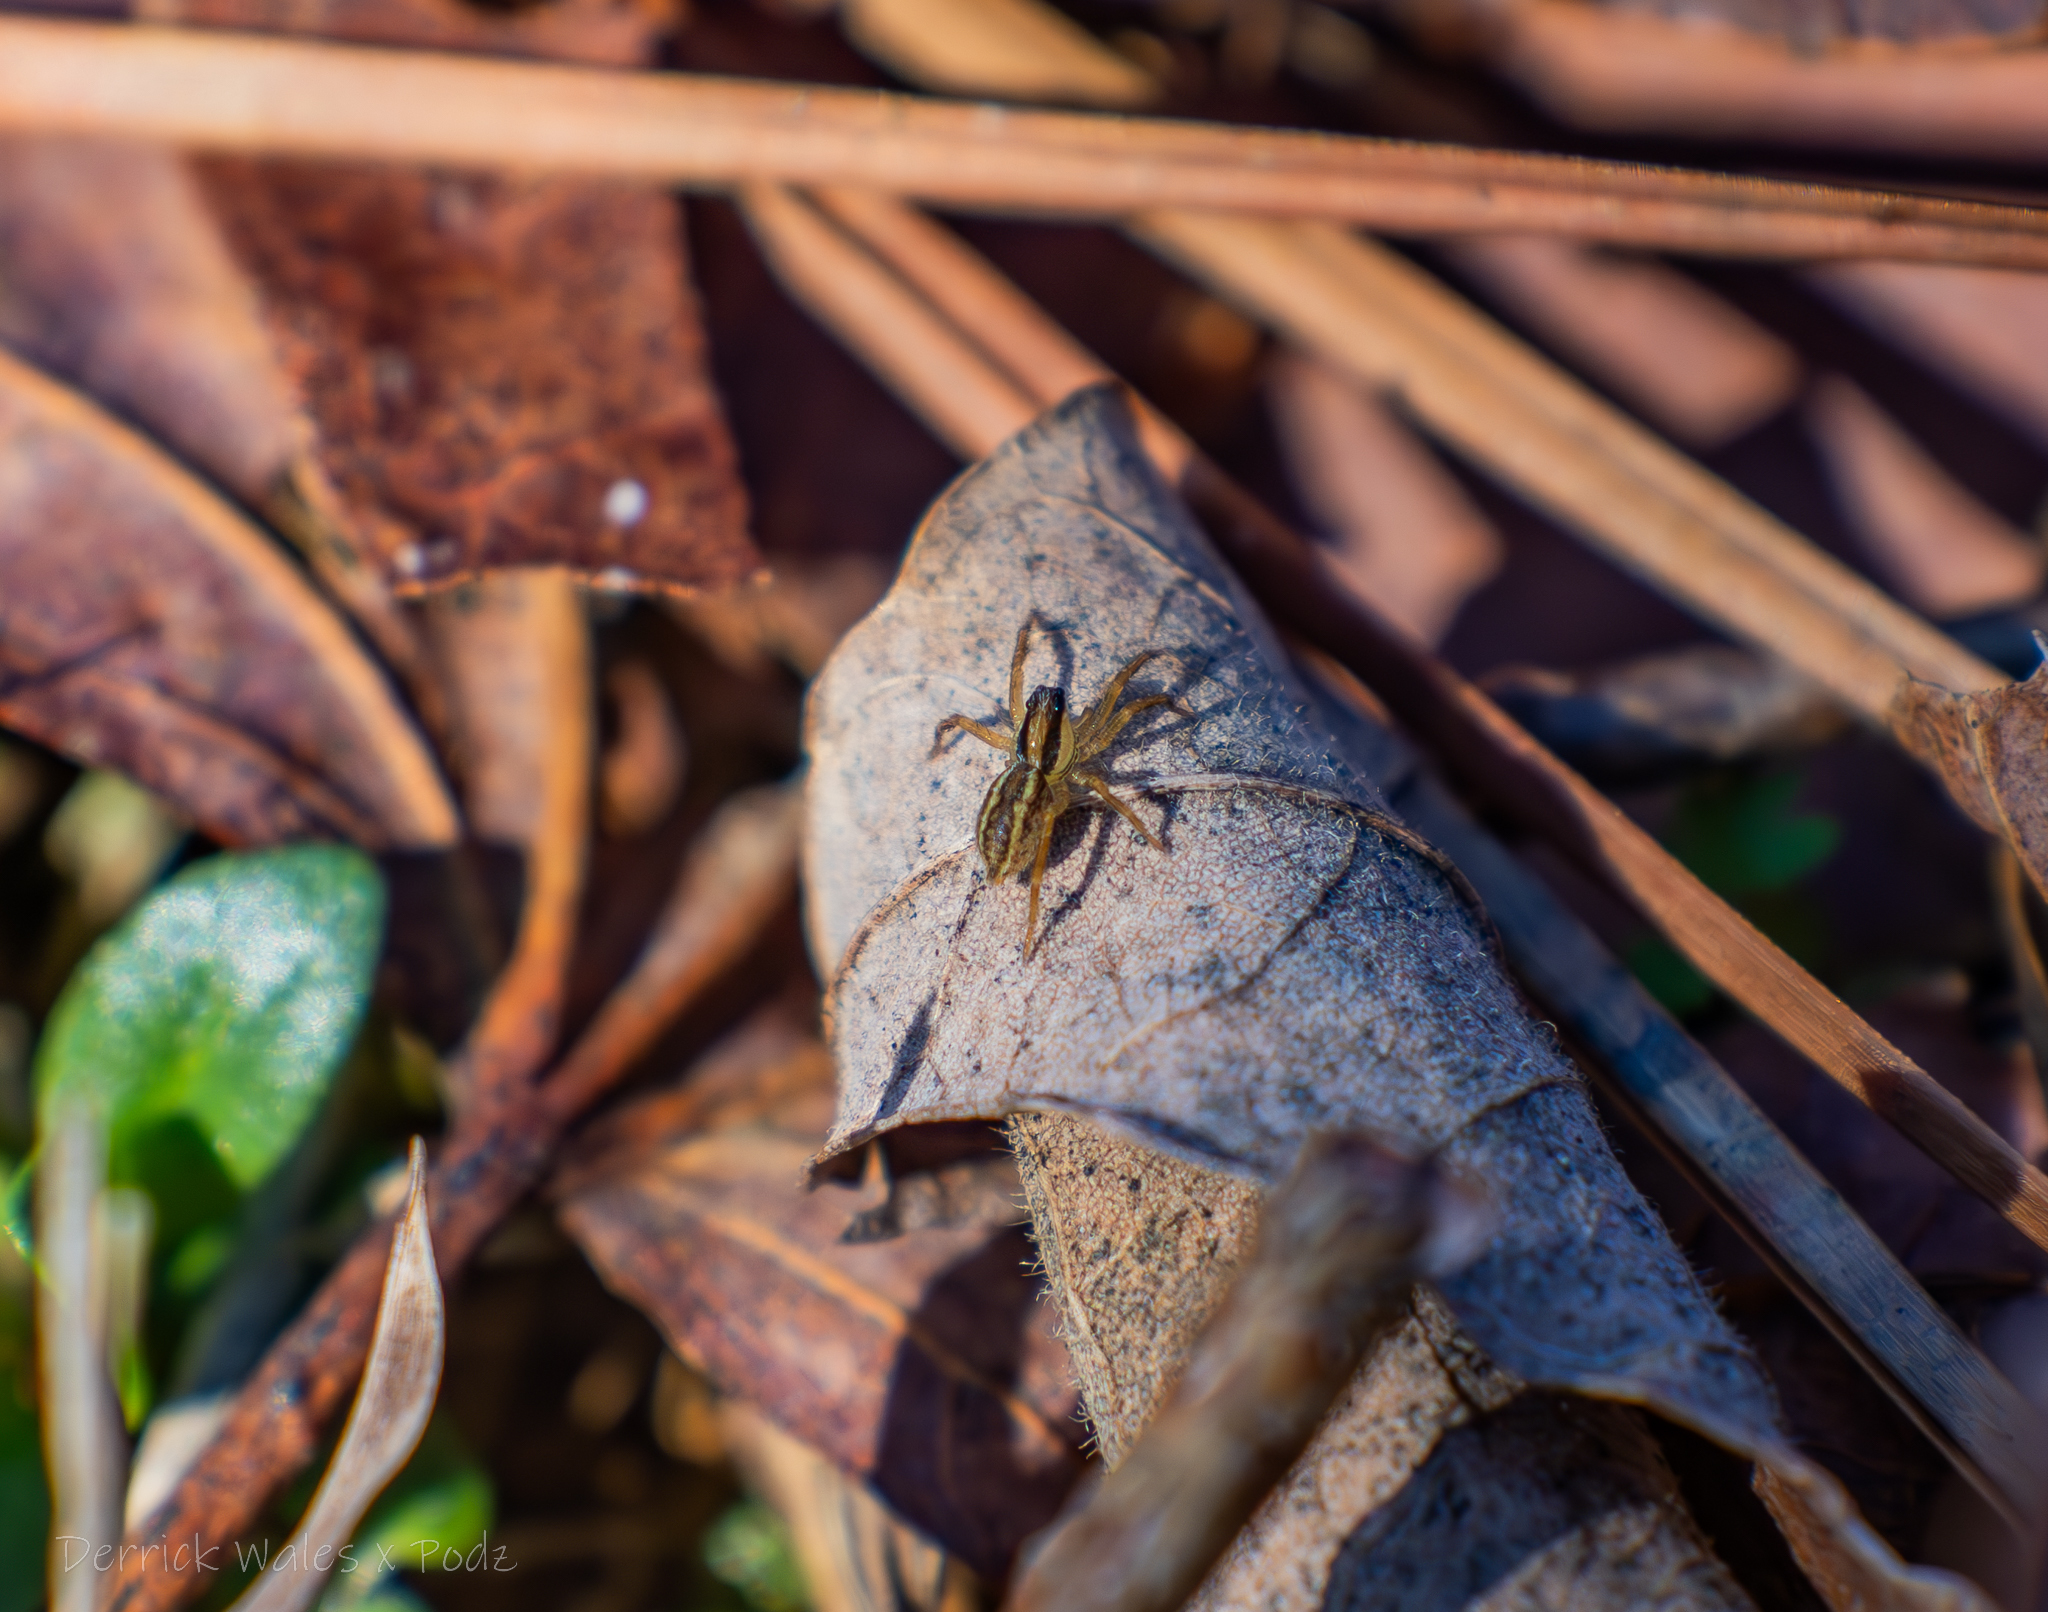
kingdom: Animalia
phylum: Arthropoda
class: Arachnida
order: Araneae
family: Lycosidae
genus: Rabidosa
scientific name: Rabidosa rabida
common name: Rabid wolf spider
